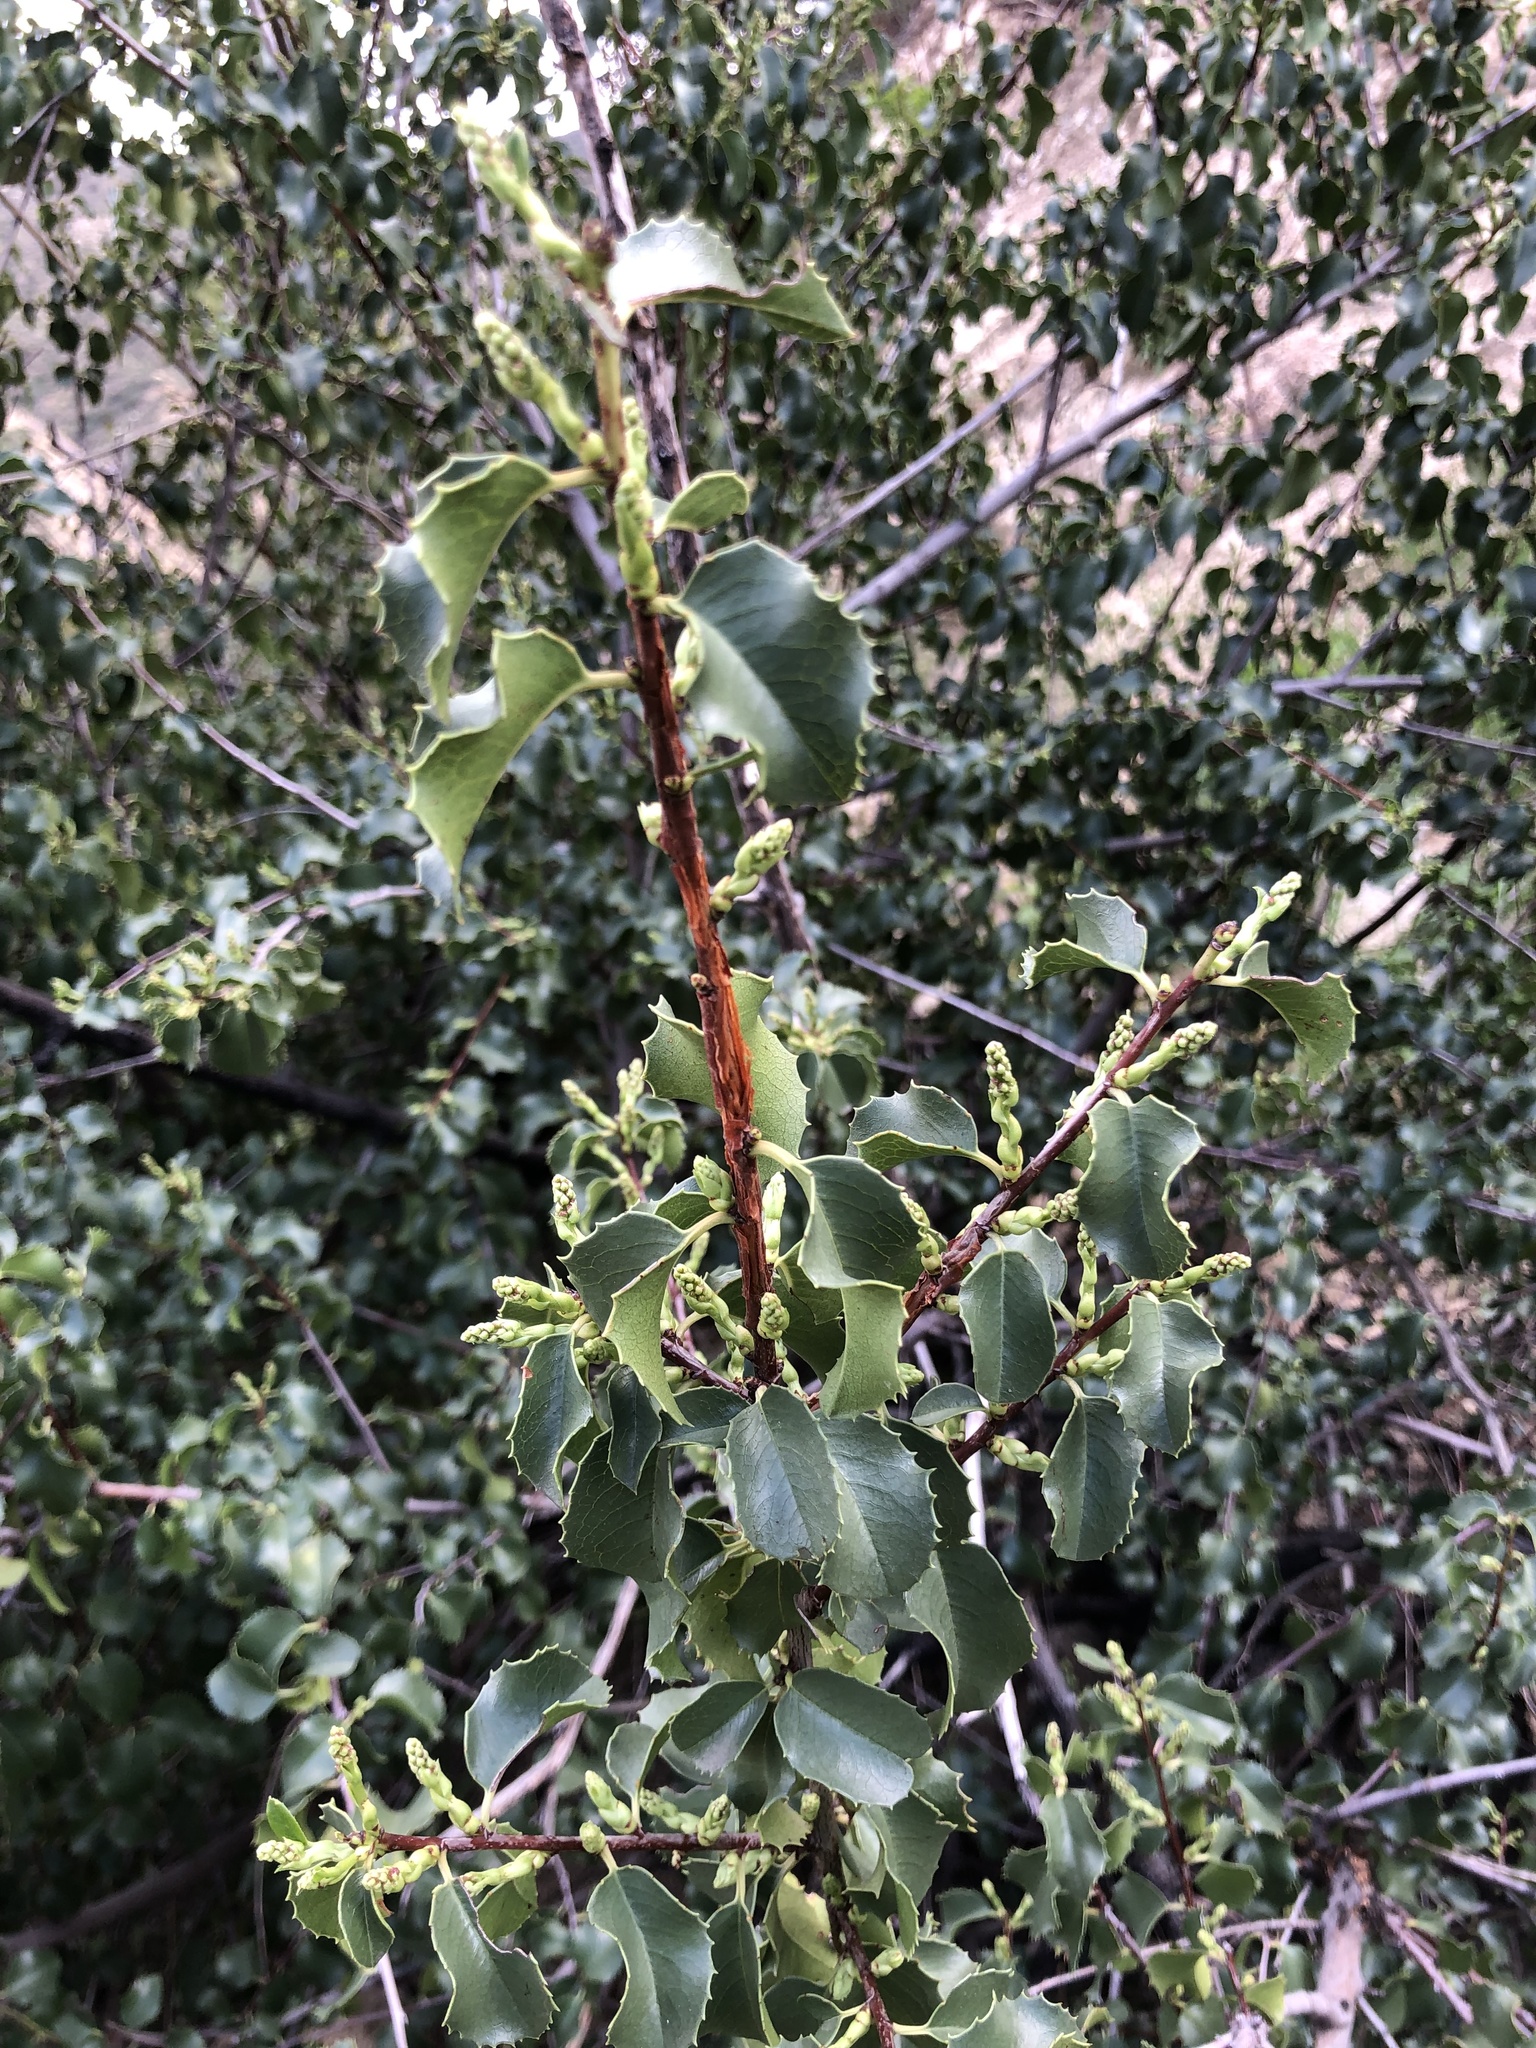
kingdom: Plantae
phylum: Tracheophyta
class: Magnoliopsida
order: Rosales
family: Rosaceae
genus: Prunus
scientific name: Prunus ilicifolia
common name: Hollyleaf cherry
